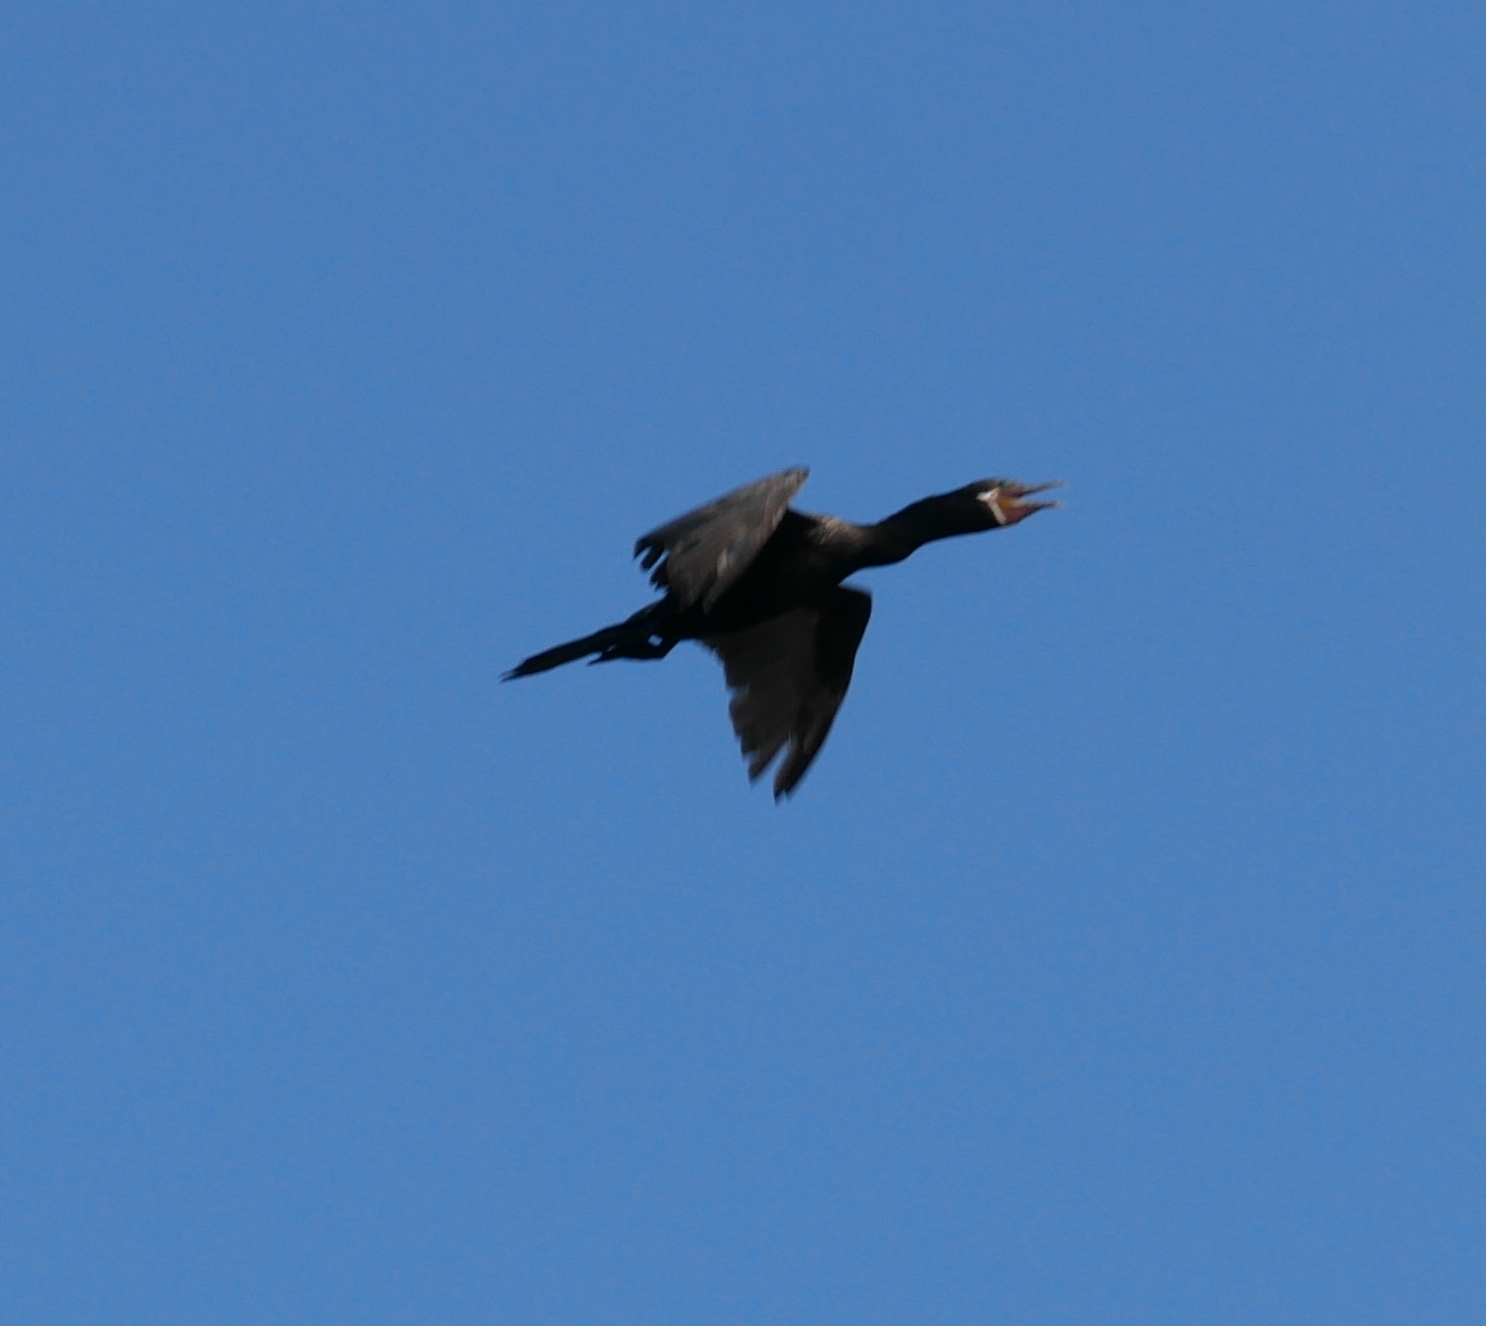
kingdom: Animalia
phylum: Chordata
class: Aves
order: Suliformes
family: Phalacrocoracidae
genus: Phalacrocorax
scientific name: Phalacrocorax brasilianus
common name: Neotropic cormorant
